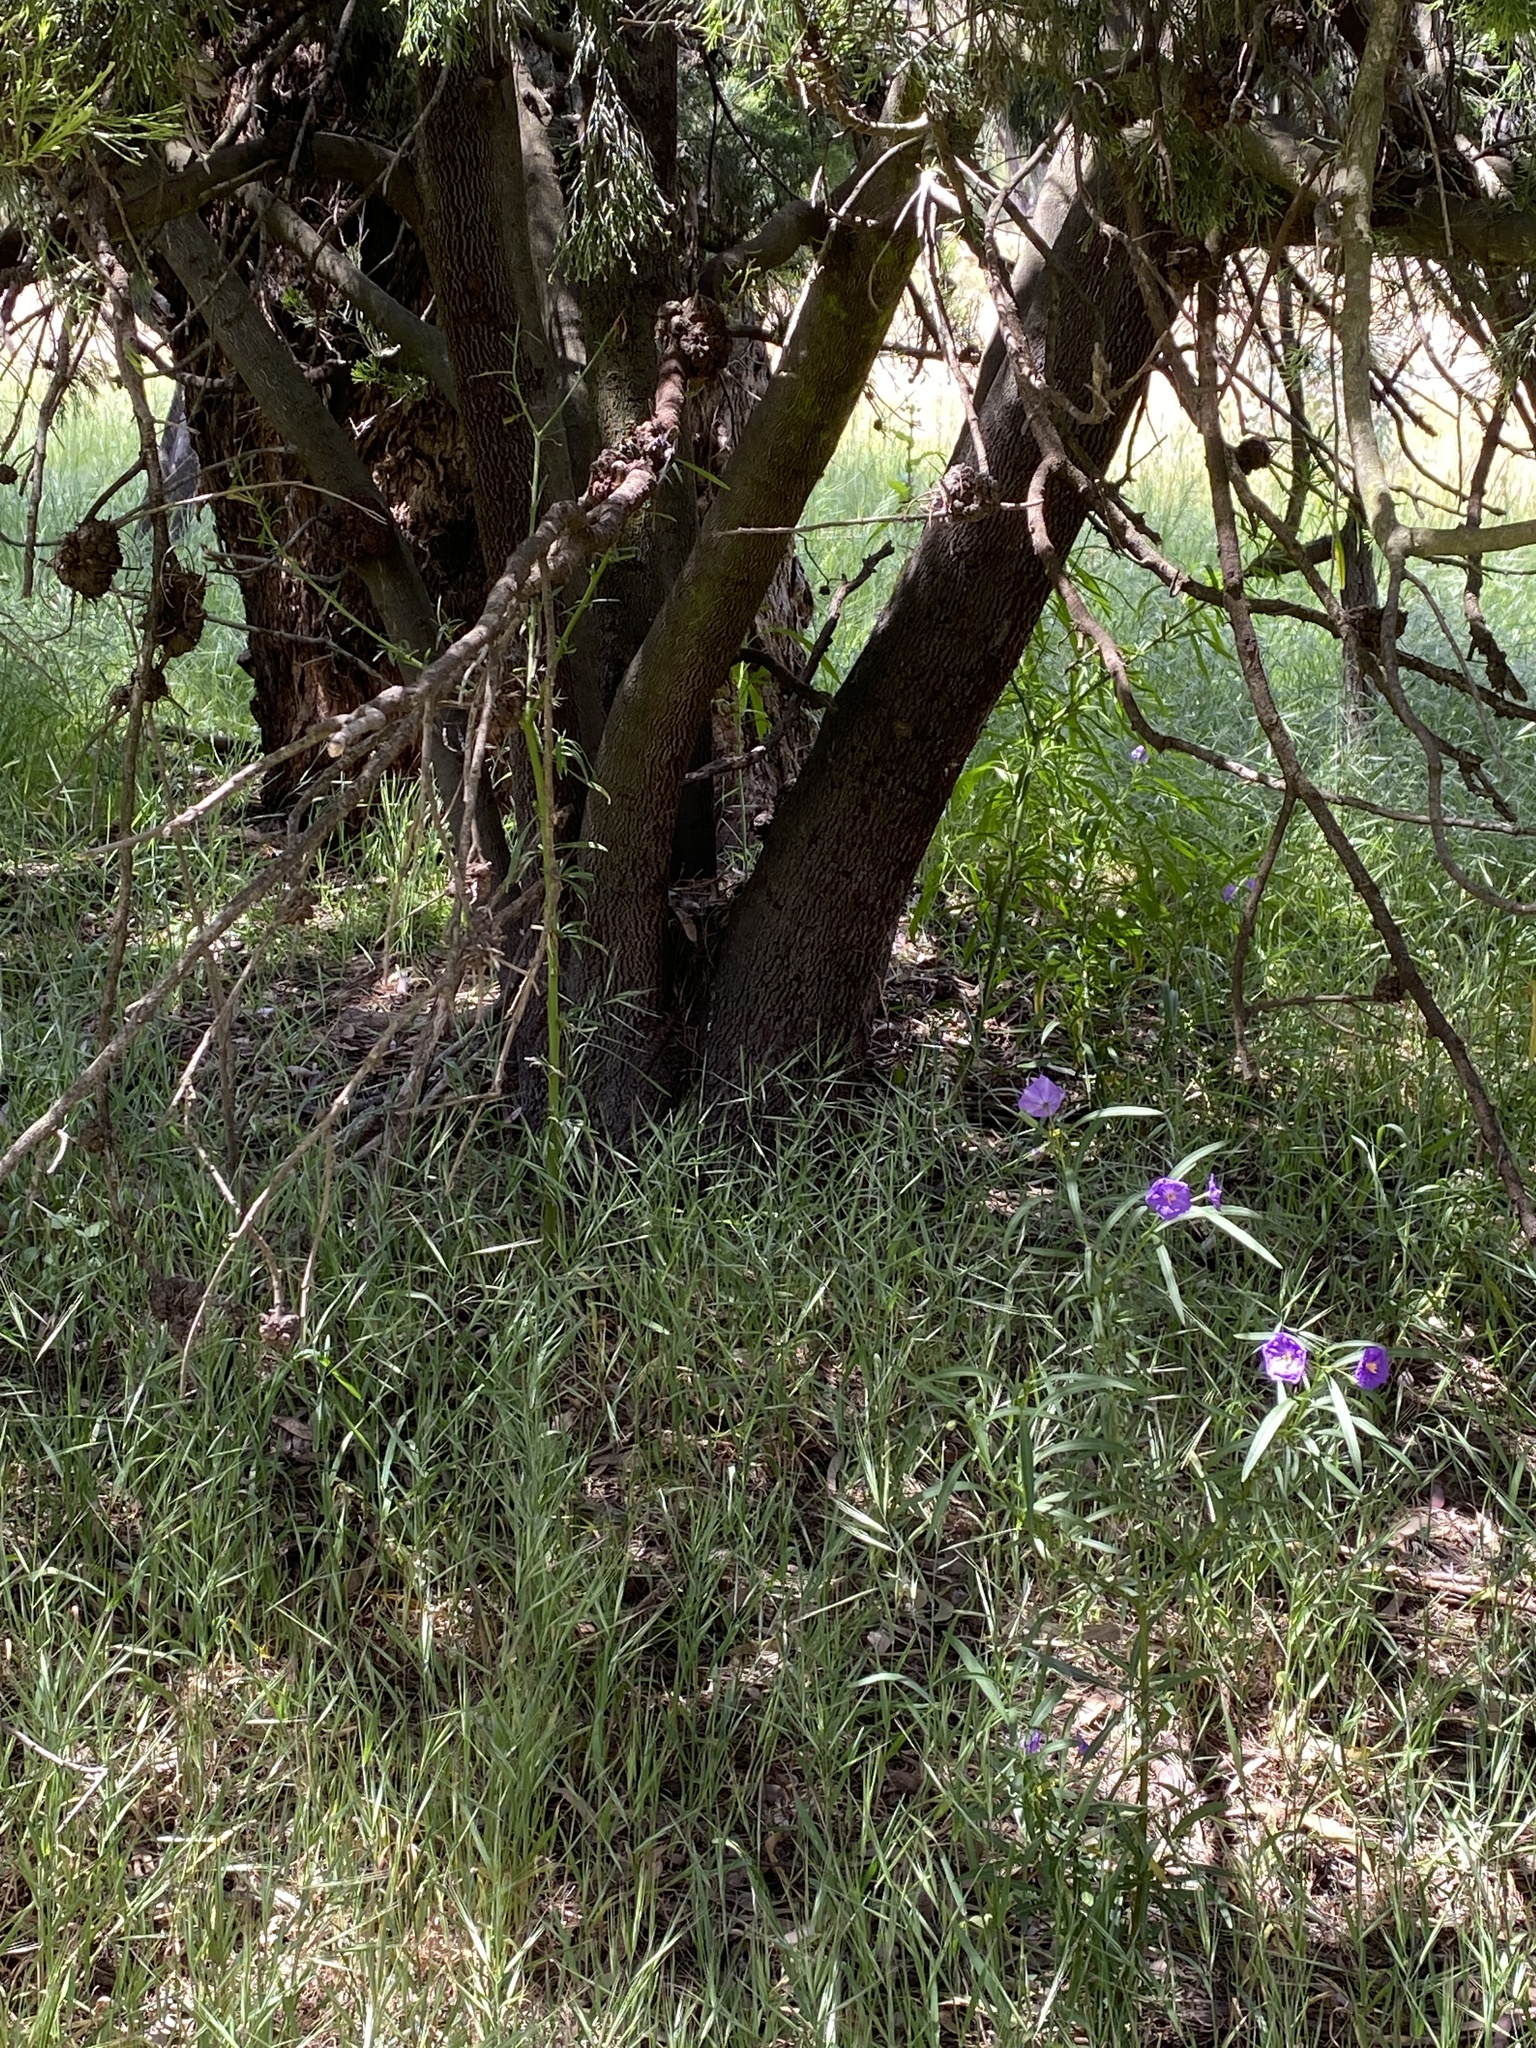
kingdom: Plantae
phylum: Tracheophyta
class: Magnoliopsida
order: Santalales
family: Santalaceae
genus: Exocarpos
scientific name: Exocarpos cupressiformis
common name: Cherry ballart
